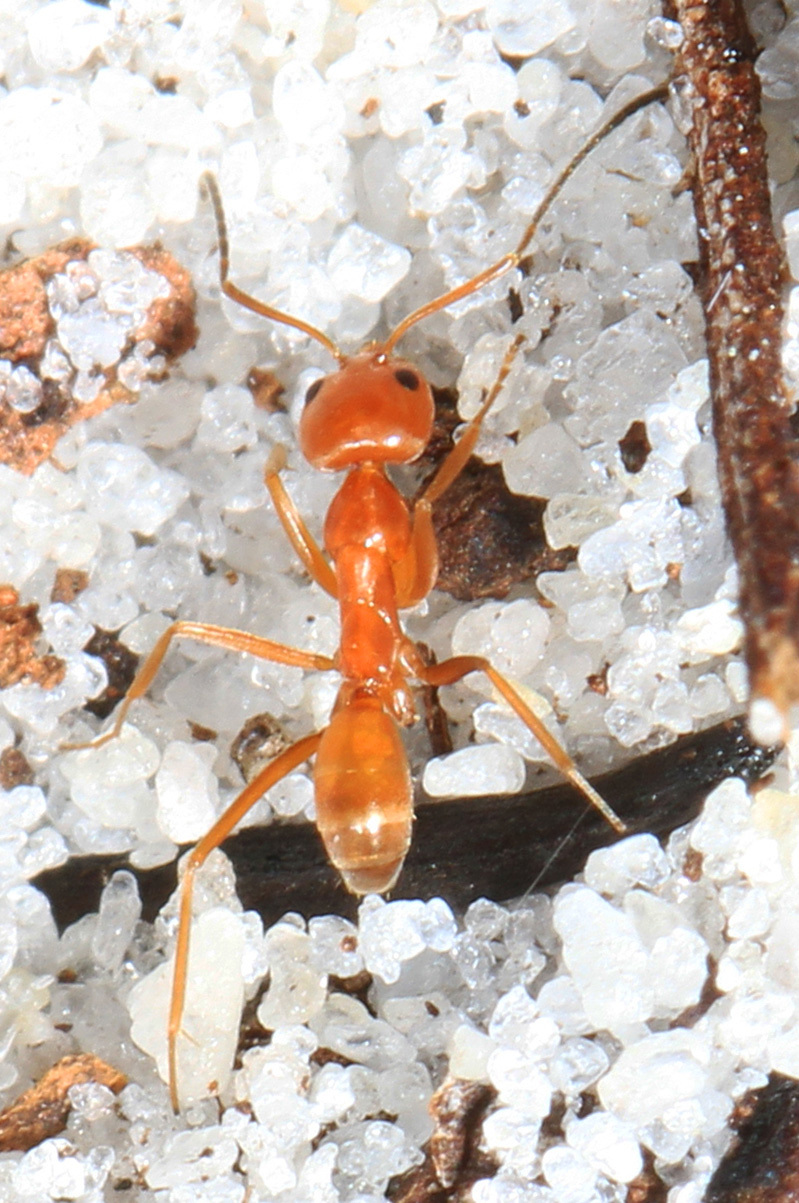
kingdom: Animalia
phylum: Arthropoda
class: Insecta
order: Hymenoptera
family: Formicidae
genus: Dorymyrmex
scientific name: Dorymyrmex bureni
